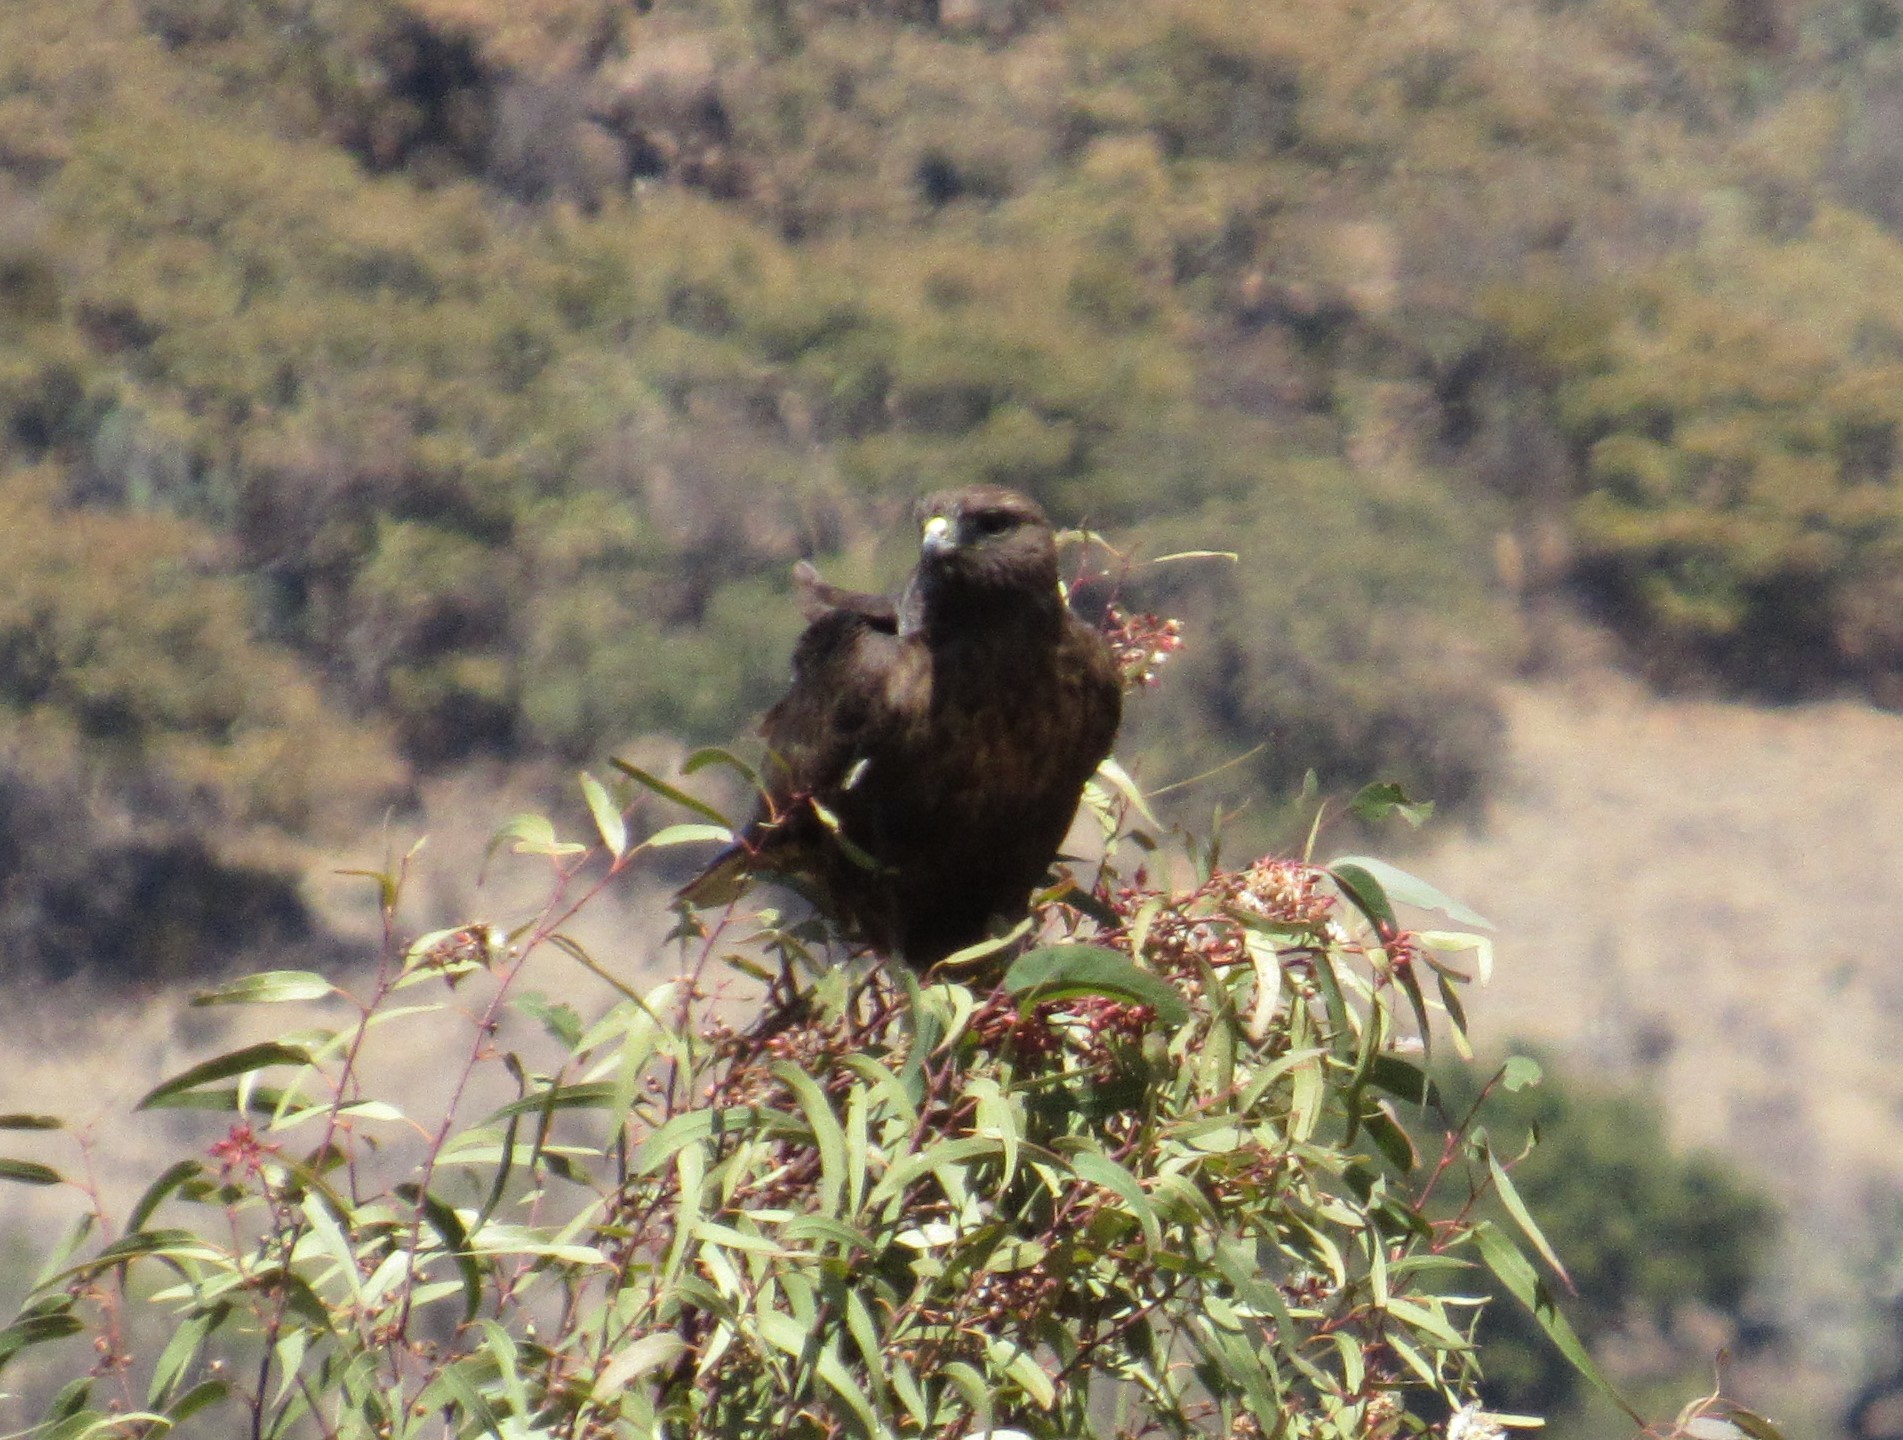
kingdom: Animalia
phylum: Chordata
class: Aves
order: Accipitriformes
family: Accipitridae
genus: Buteo
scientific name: Buteo jamaicensis
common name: Red-tailed hawk
